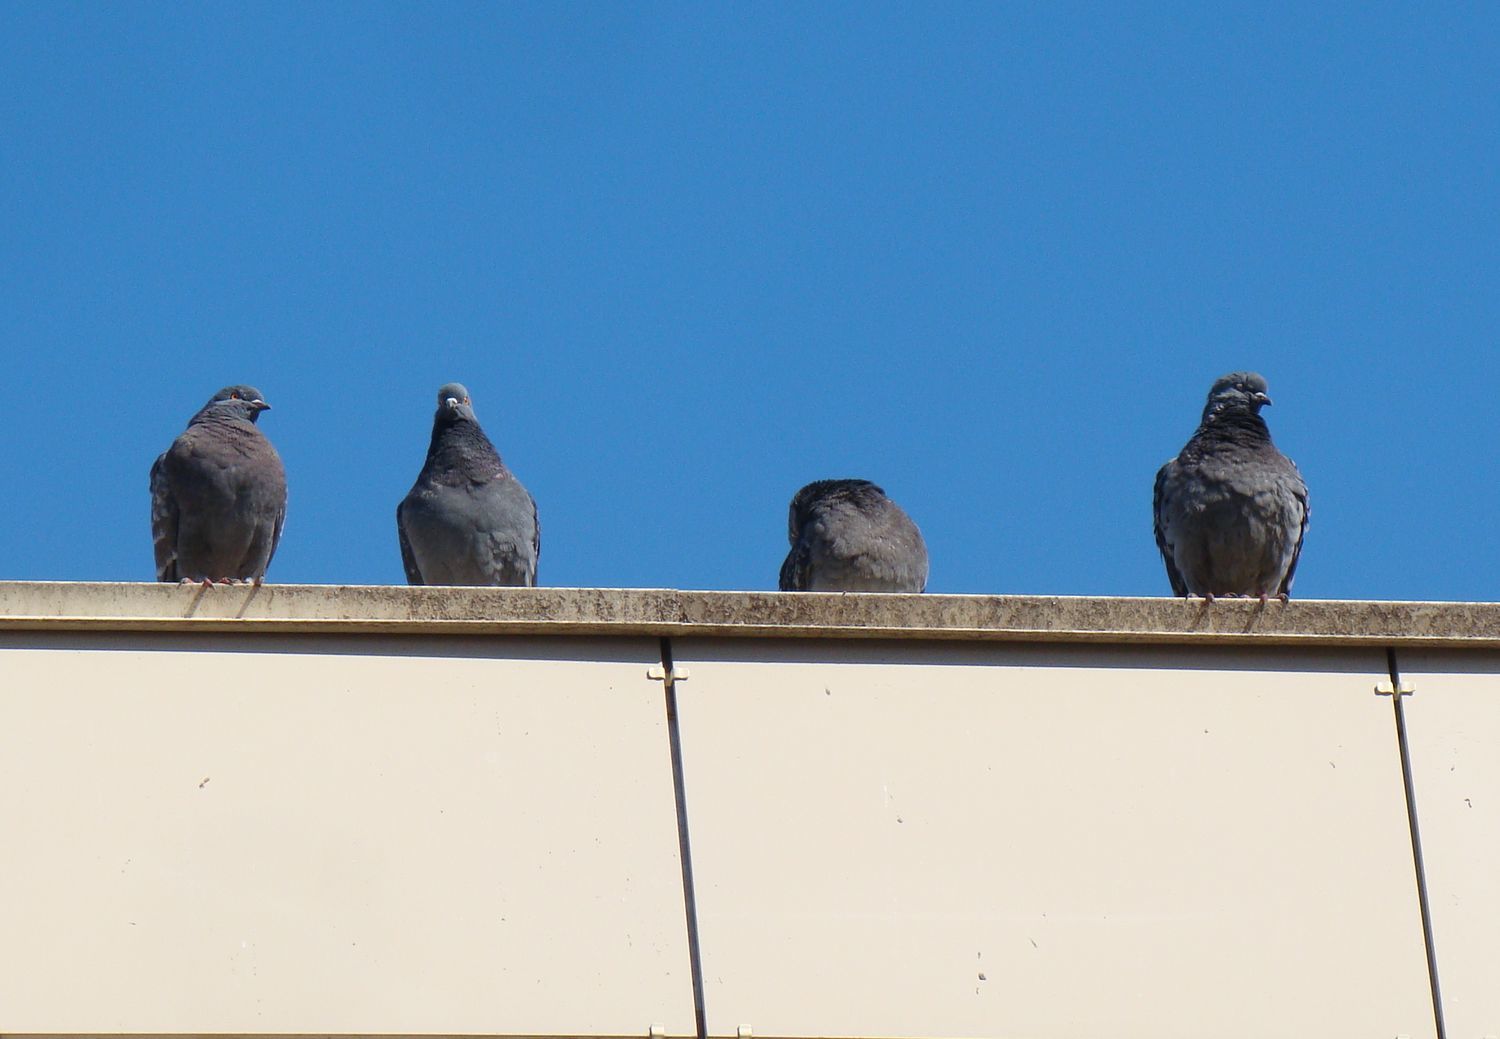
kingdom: Animalia
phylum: Chordata
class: Aves
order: Columbiformes
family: Columbidae
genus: Columba
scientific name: Columba livia
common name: Rock pigeon
